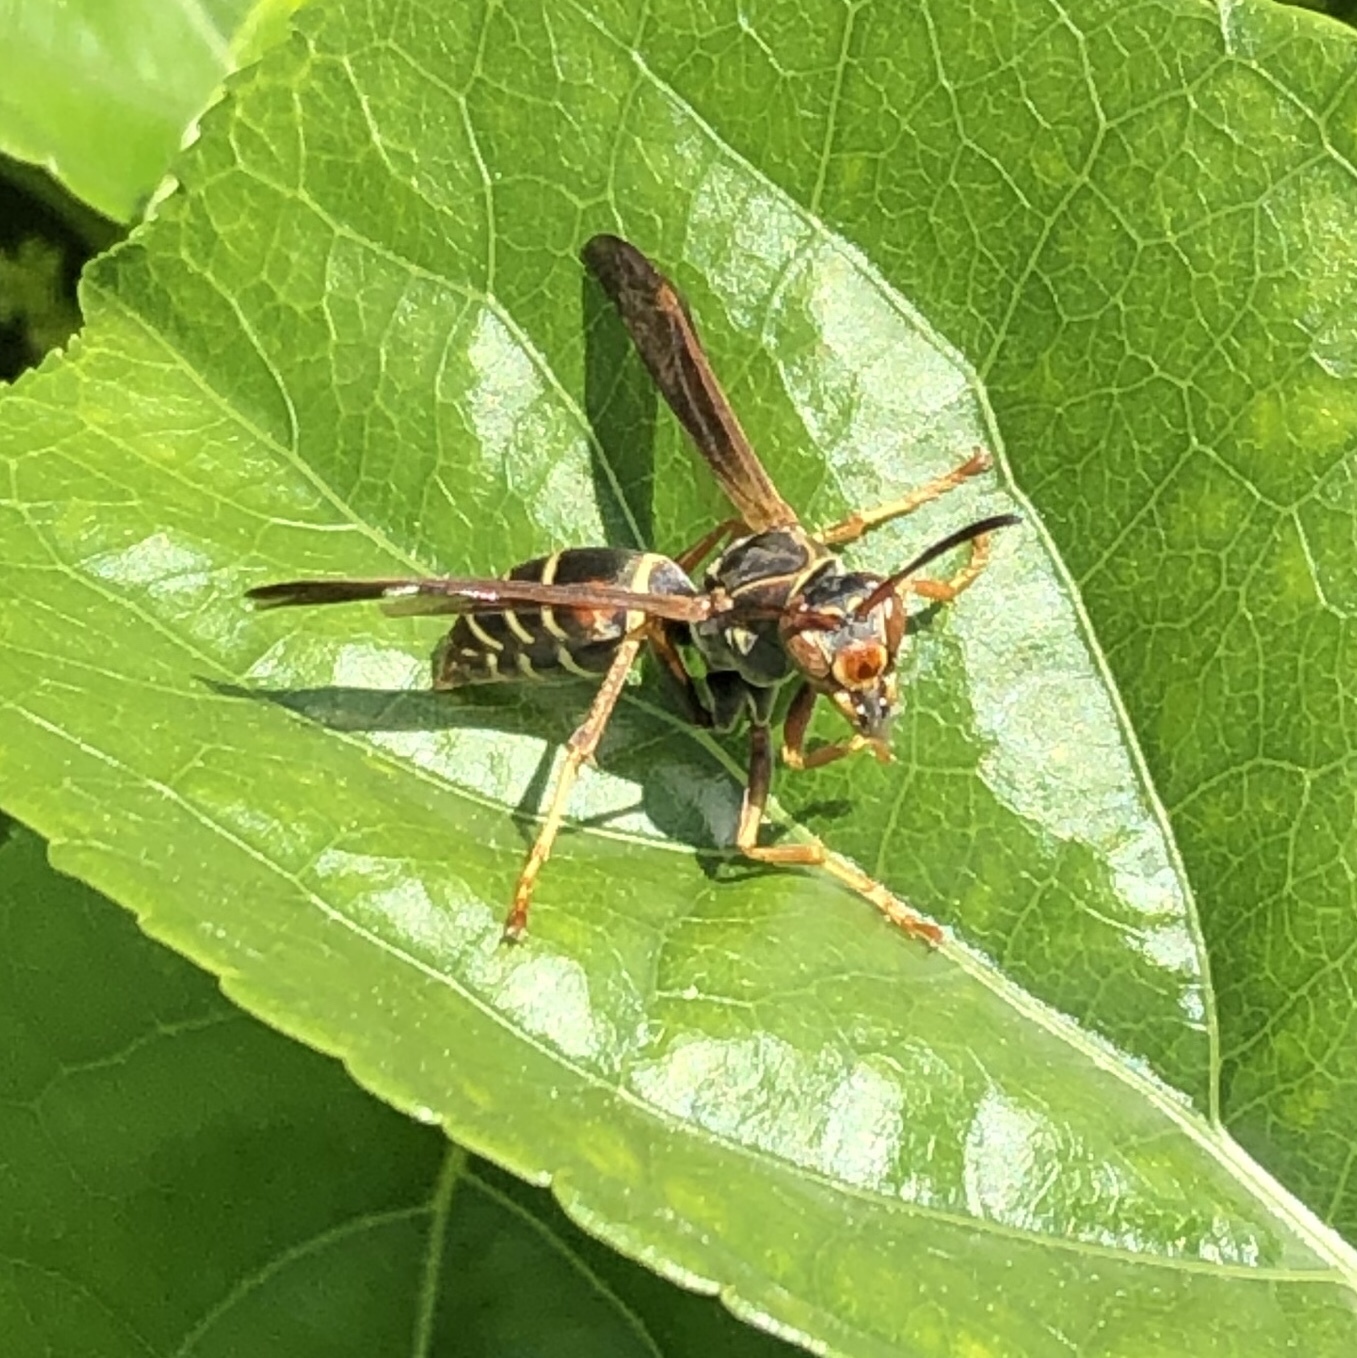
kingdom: Animalia
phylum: Arthropoda
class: Insecta
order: Hymenoptera
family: Eumenidae
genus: Polistes
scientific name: Polistes fuscatus
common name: Dark paper wasp
